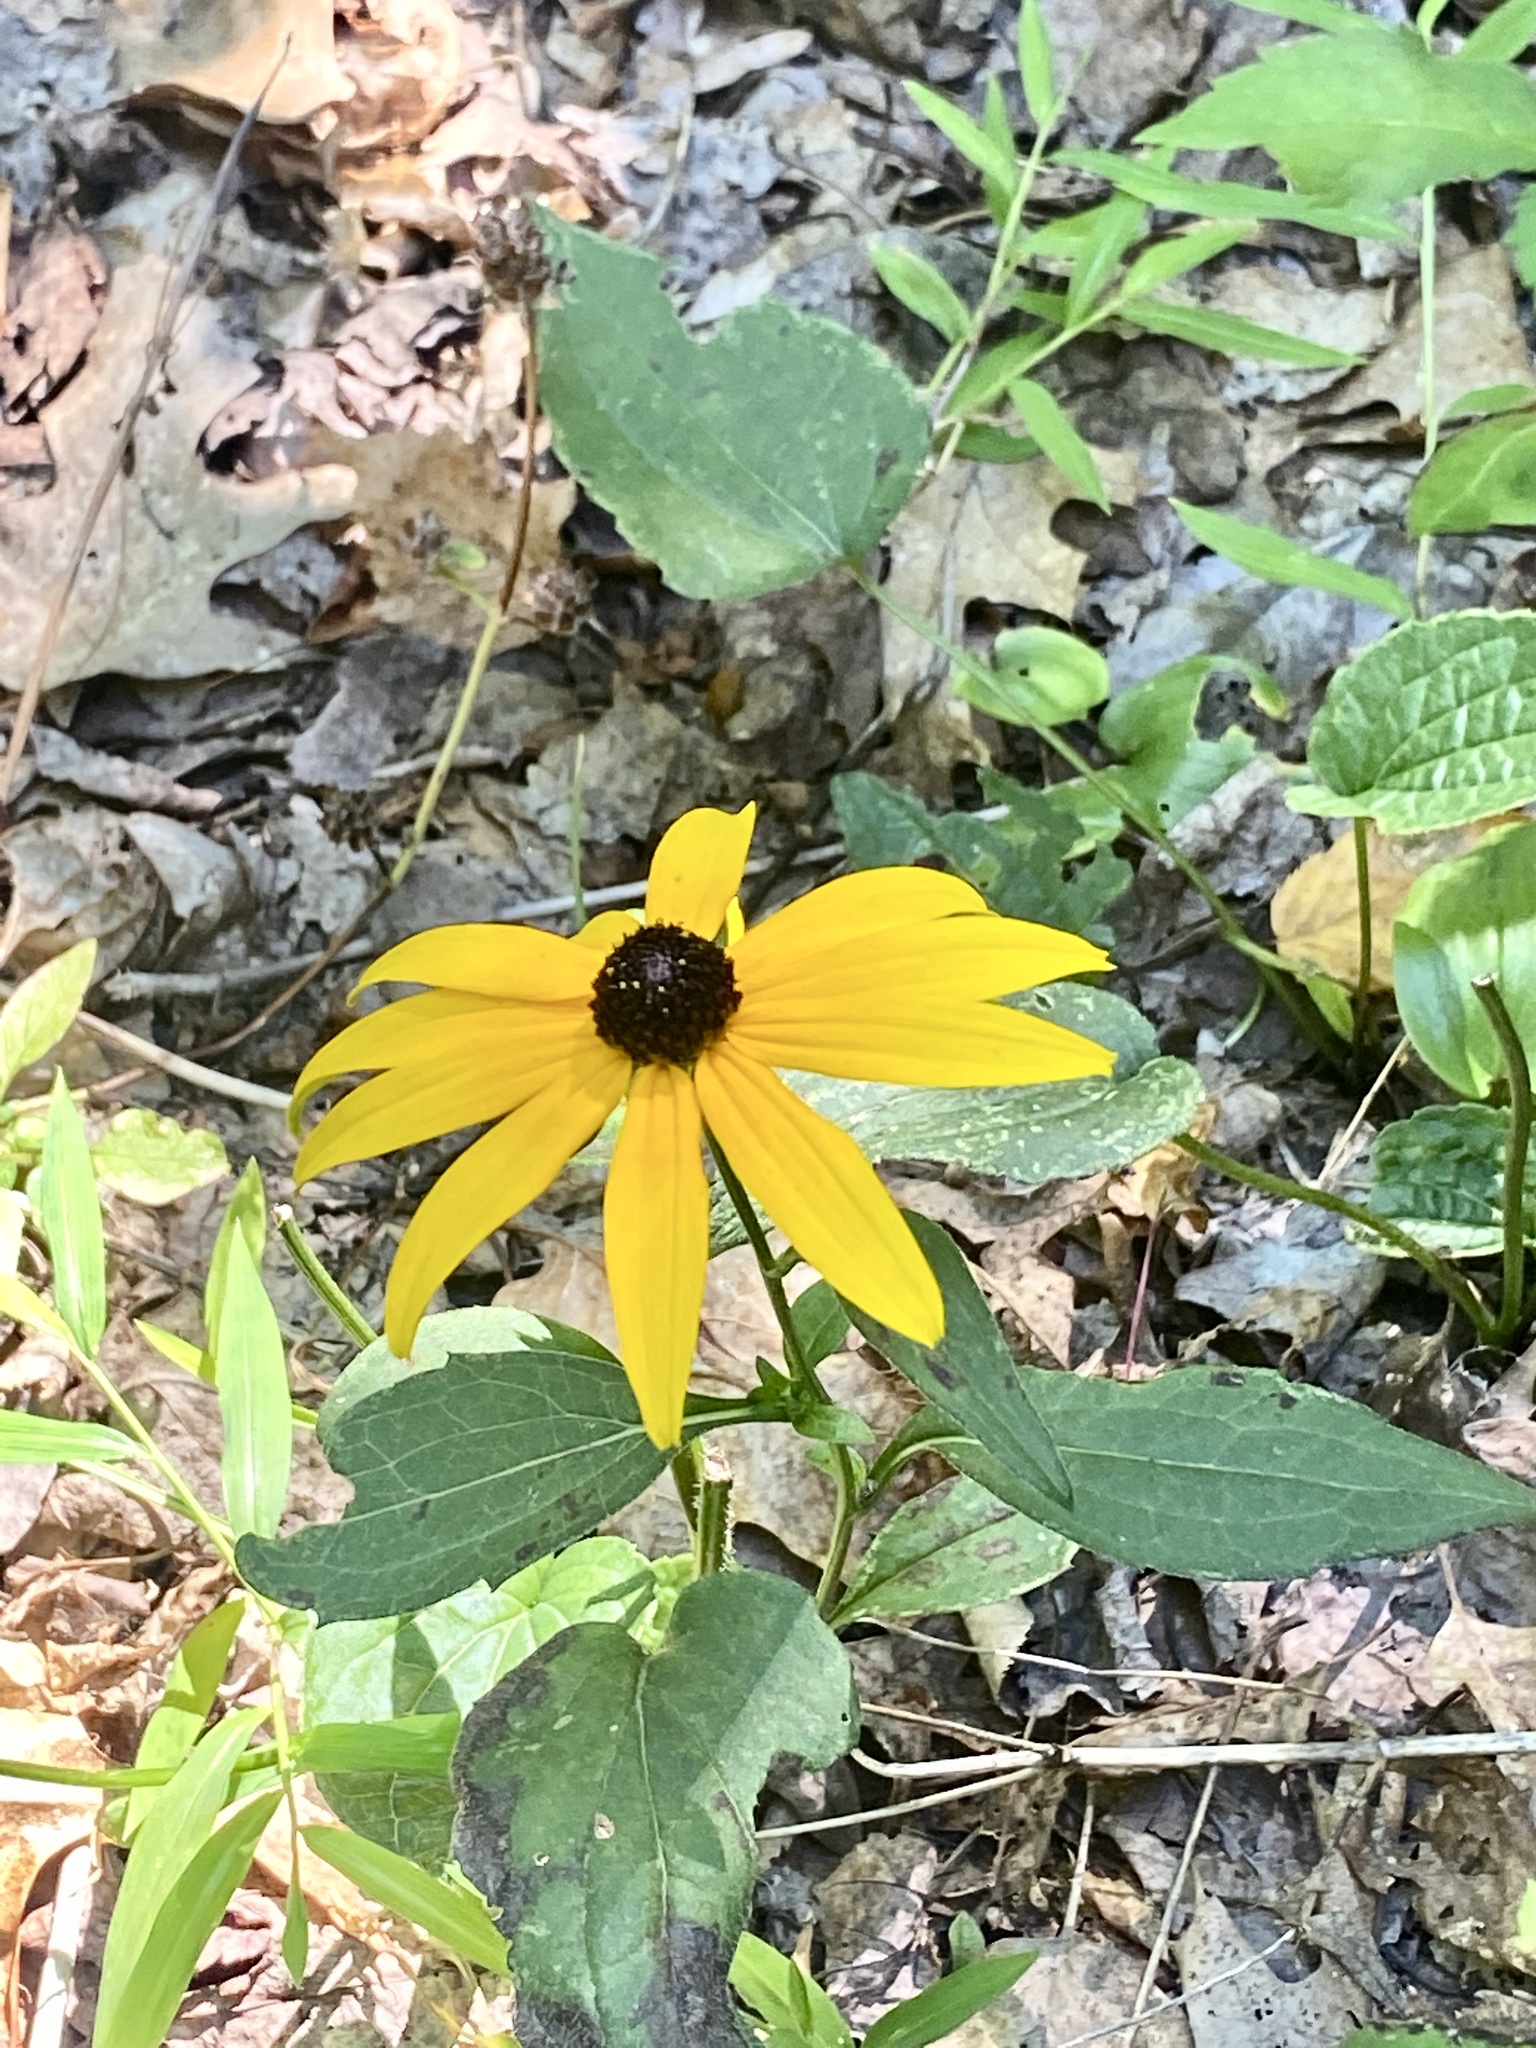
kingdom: Plantae
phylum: Tracheophyta
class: Magnoliopsida
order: Asterales
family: Asteraceae
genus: Rudbeckia
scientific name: Rudbeckia fulgida
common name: Perennial coneflower
